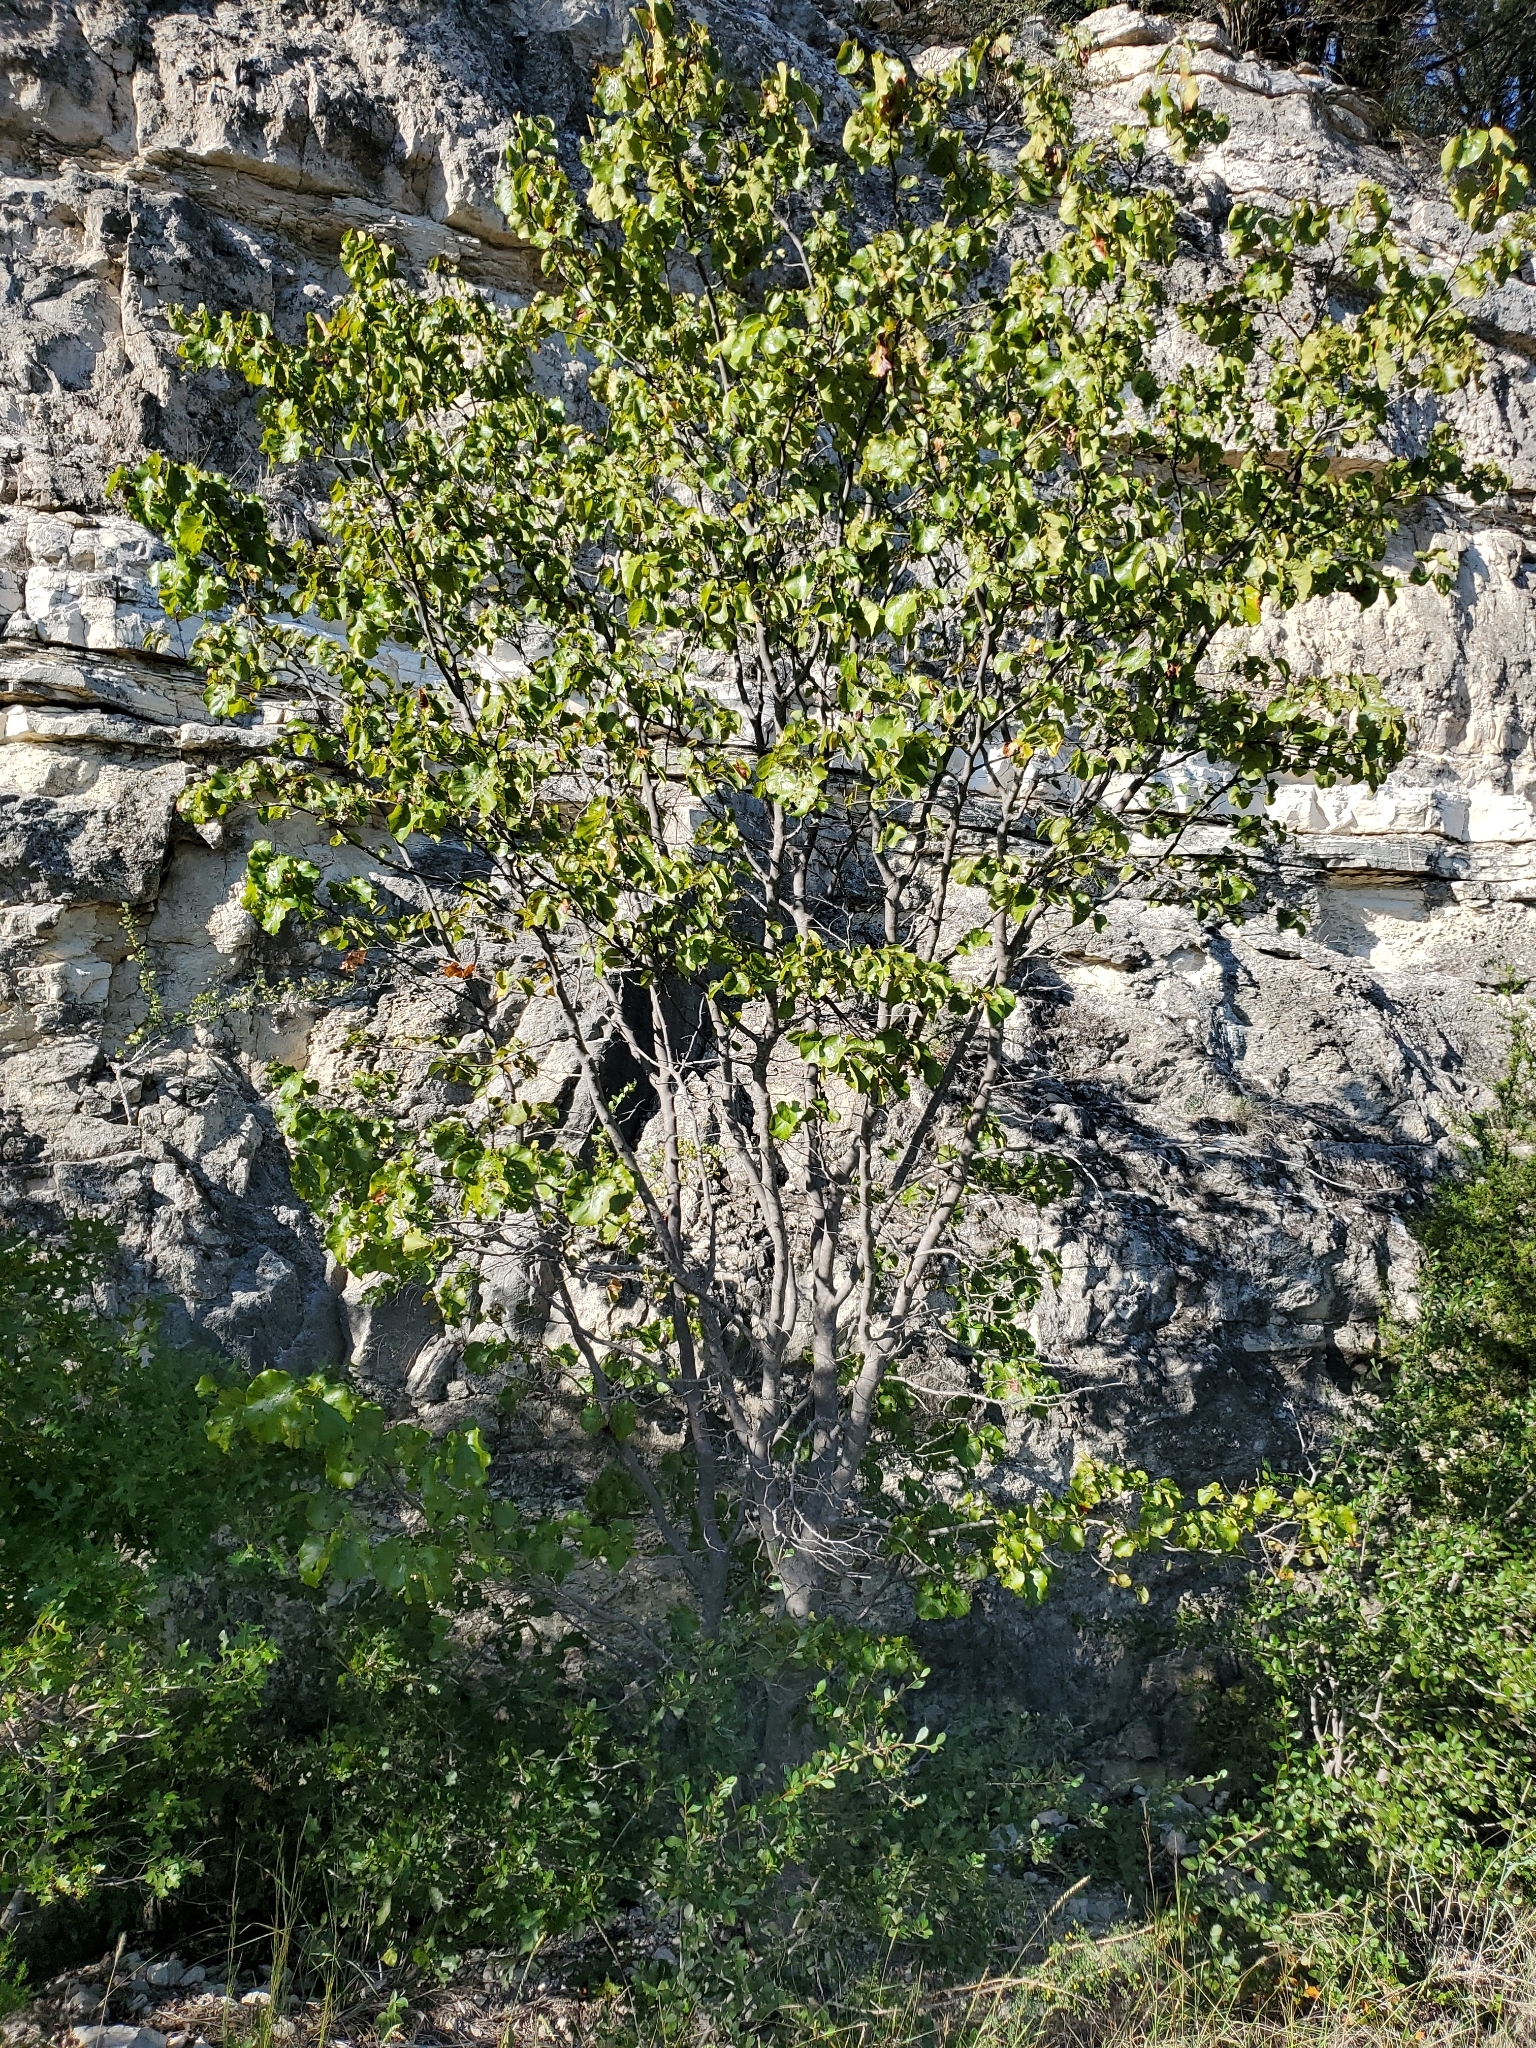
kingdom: Plantae
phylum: Tracheophyta
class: Magnoliopsida
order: Fabales
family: Fabaceae
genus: Cercis
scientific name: Cercis canadensis
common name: Eastern redbud
